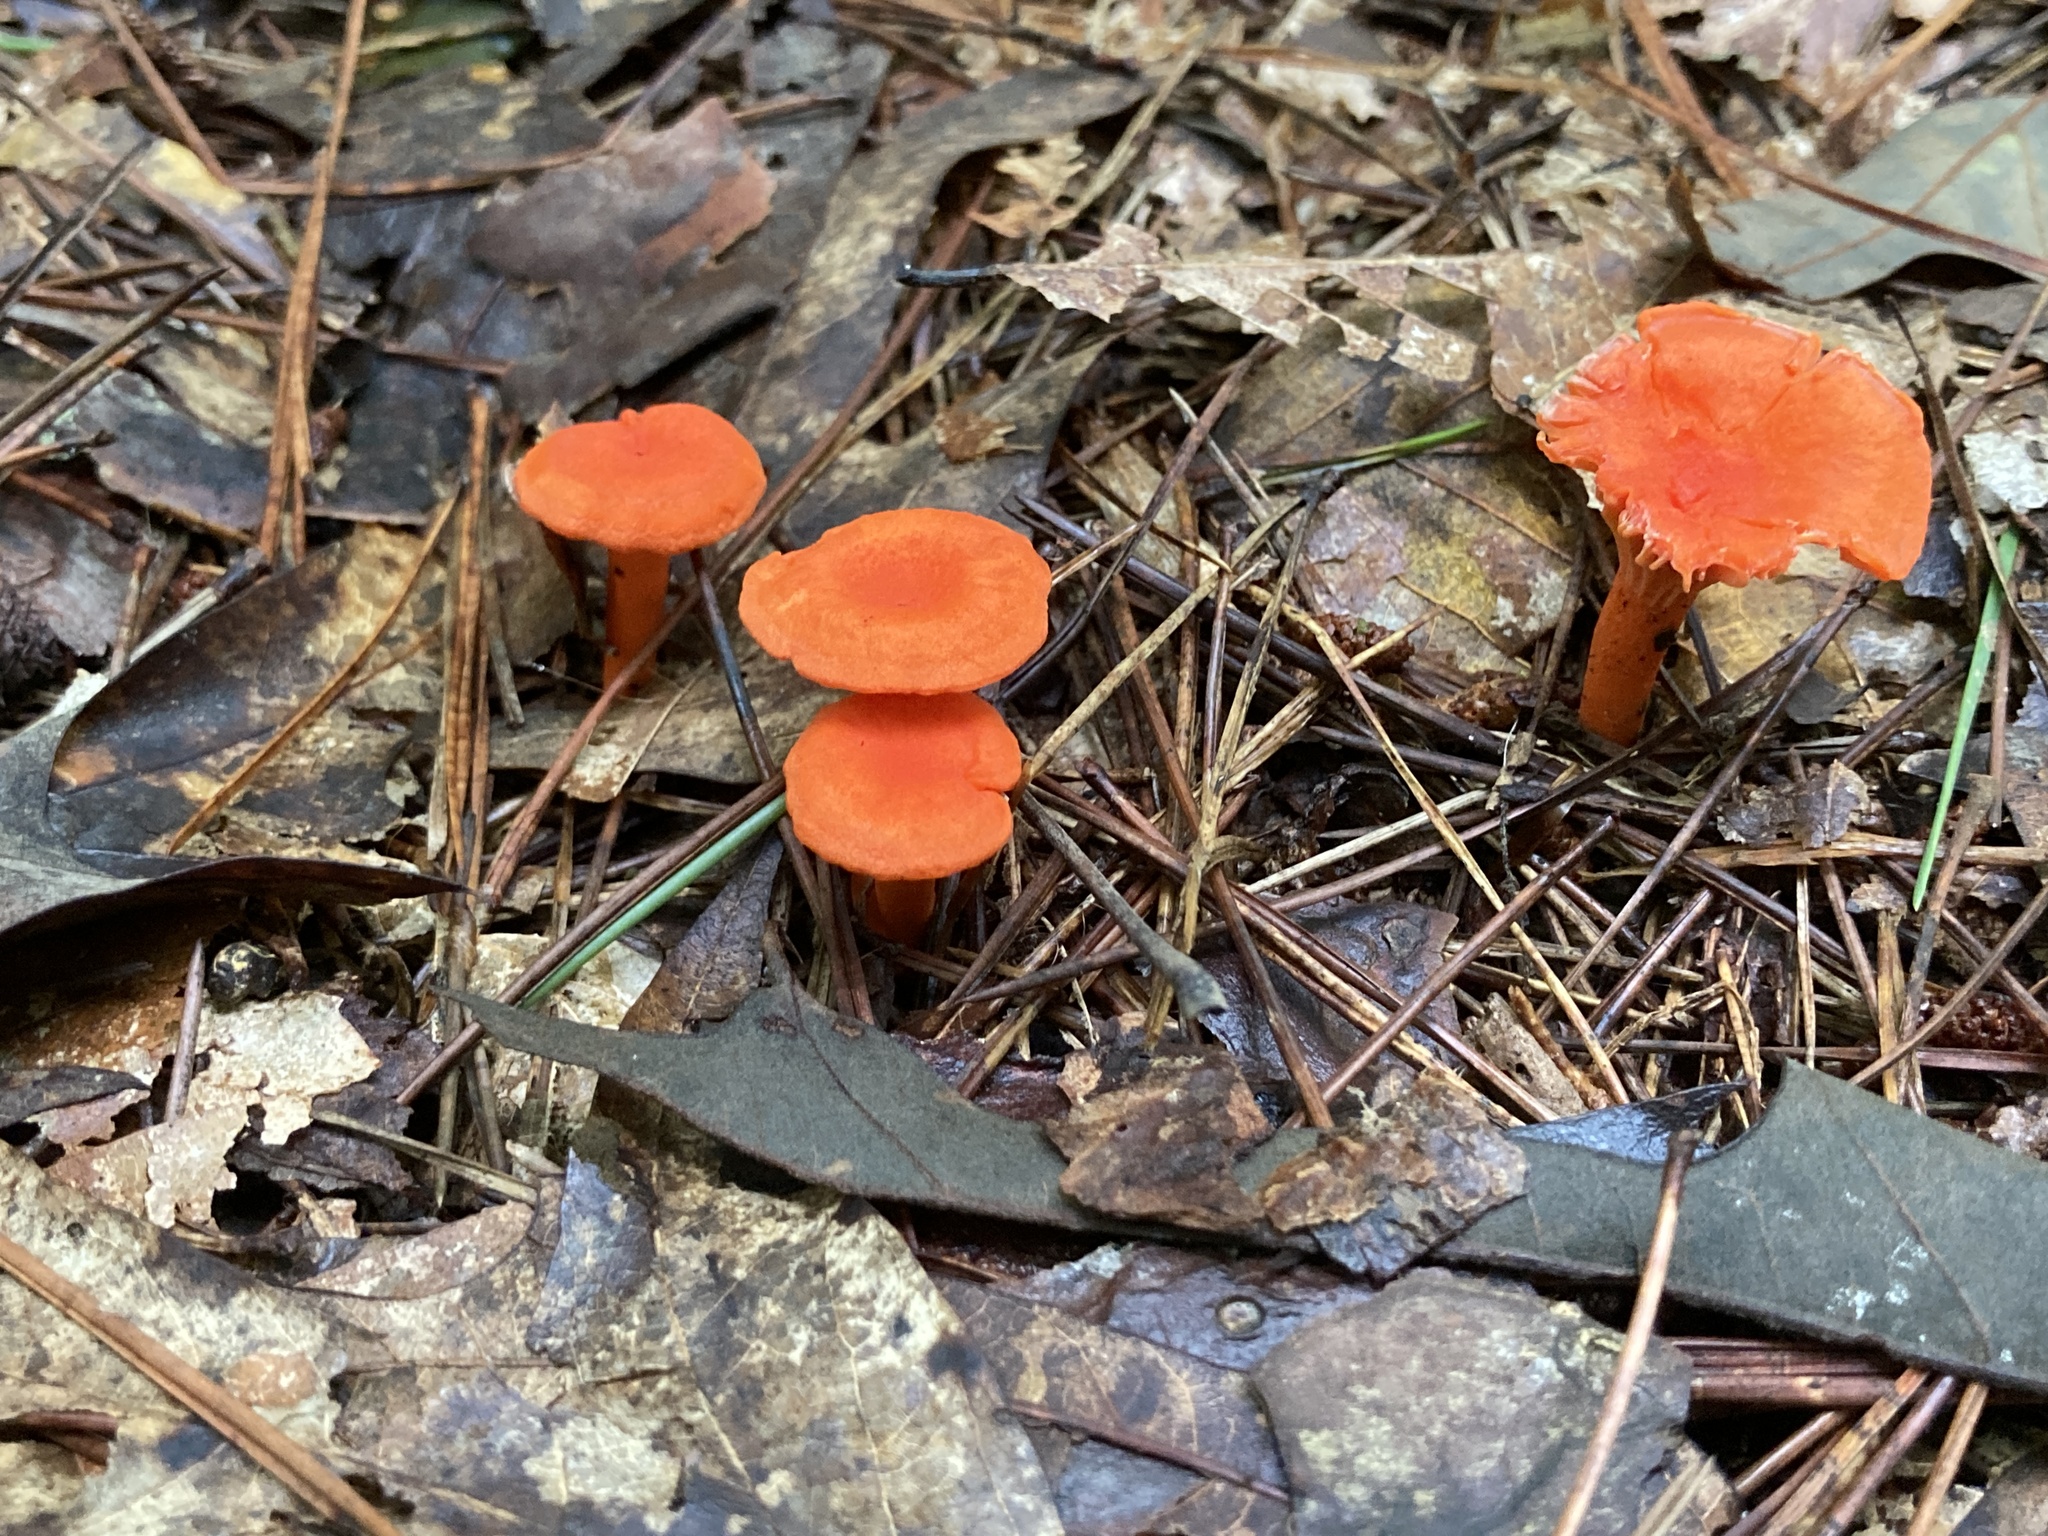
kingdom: Fungi
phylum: Basidiomycota
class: Agaricomycetes
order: Cantharellales
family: Hydnaceae
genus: Cantharellus
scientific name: Cantharellus cinnabarinus
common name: Cinnabar chanterelle
